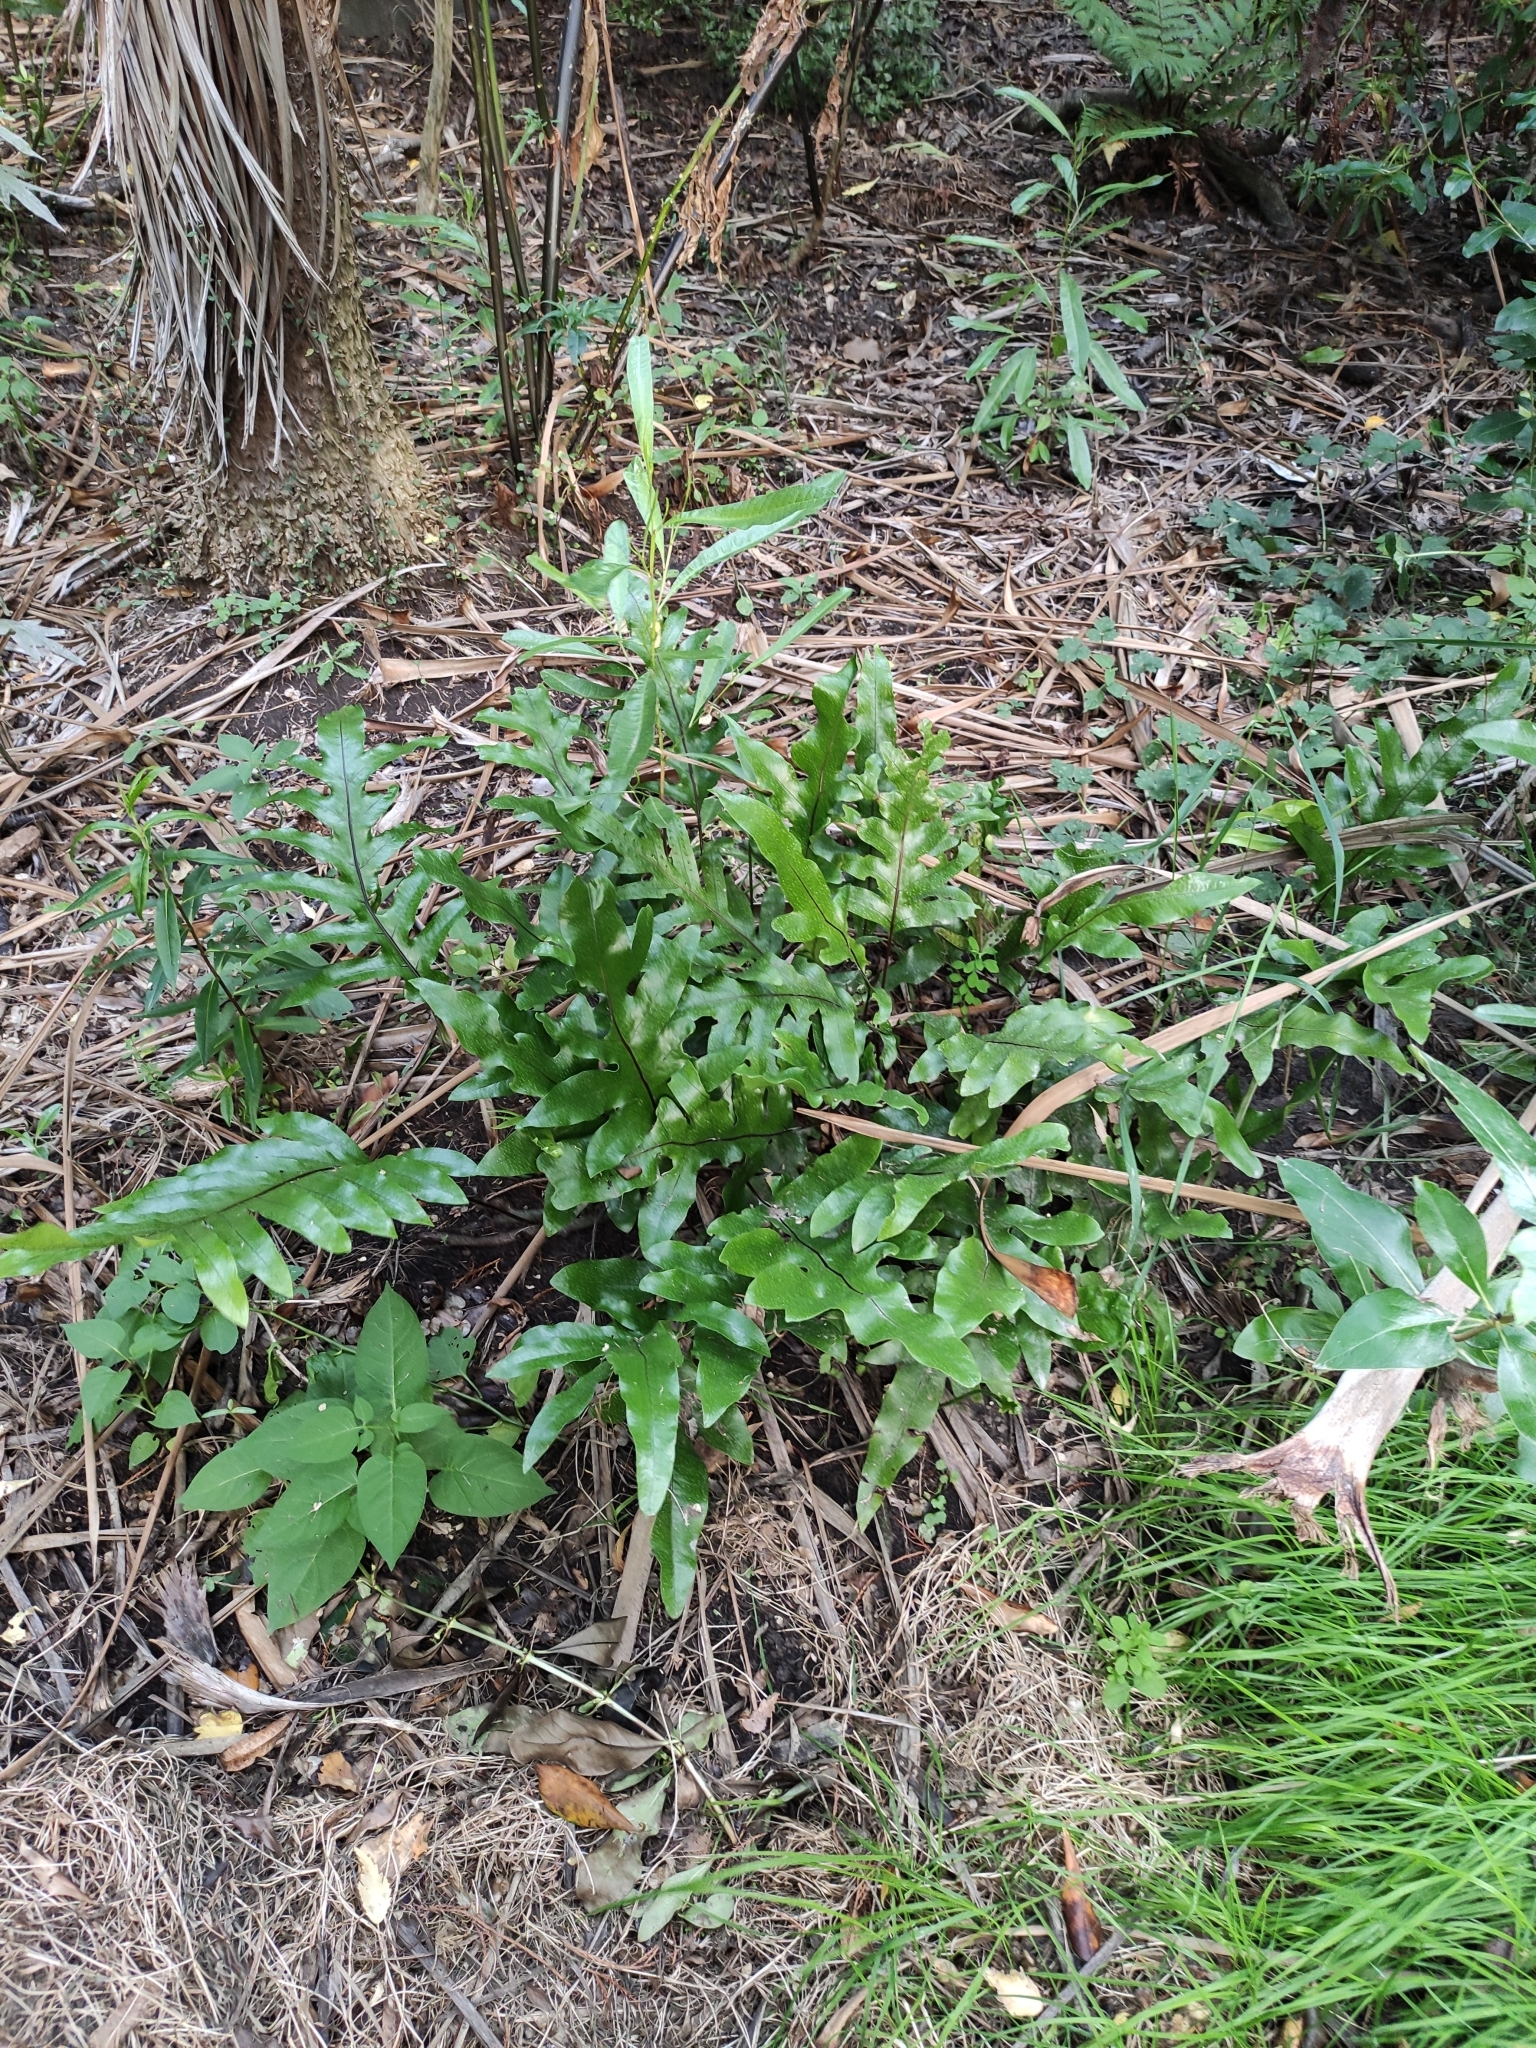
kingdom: Plantae
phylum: Tracheophyta
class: Polypodiopsida
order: Polypodiales
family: Polypodiaceae
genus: Lecanopteris
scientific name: Lecanopteris pustulata
